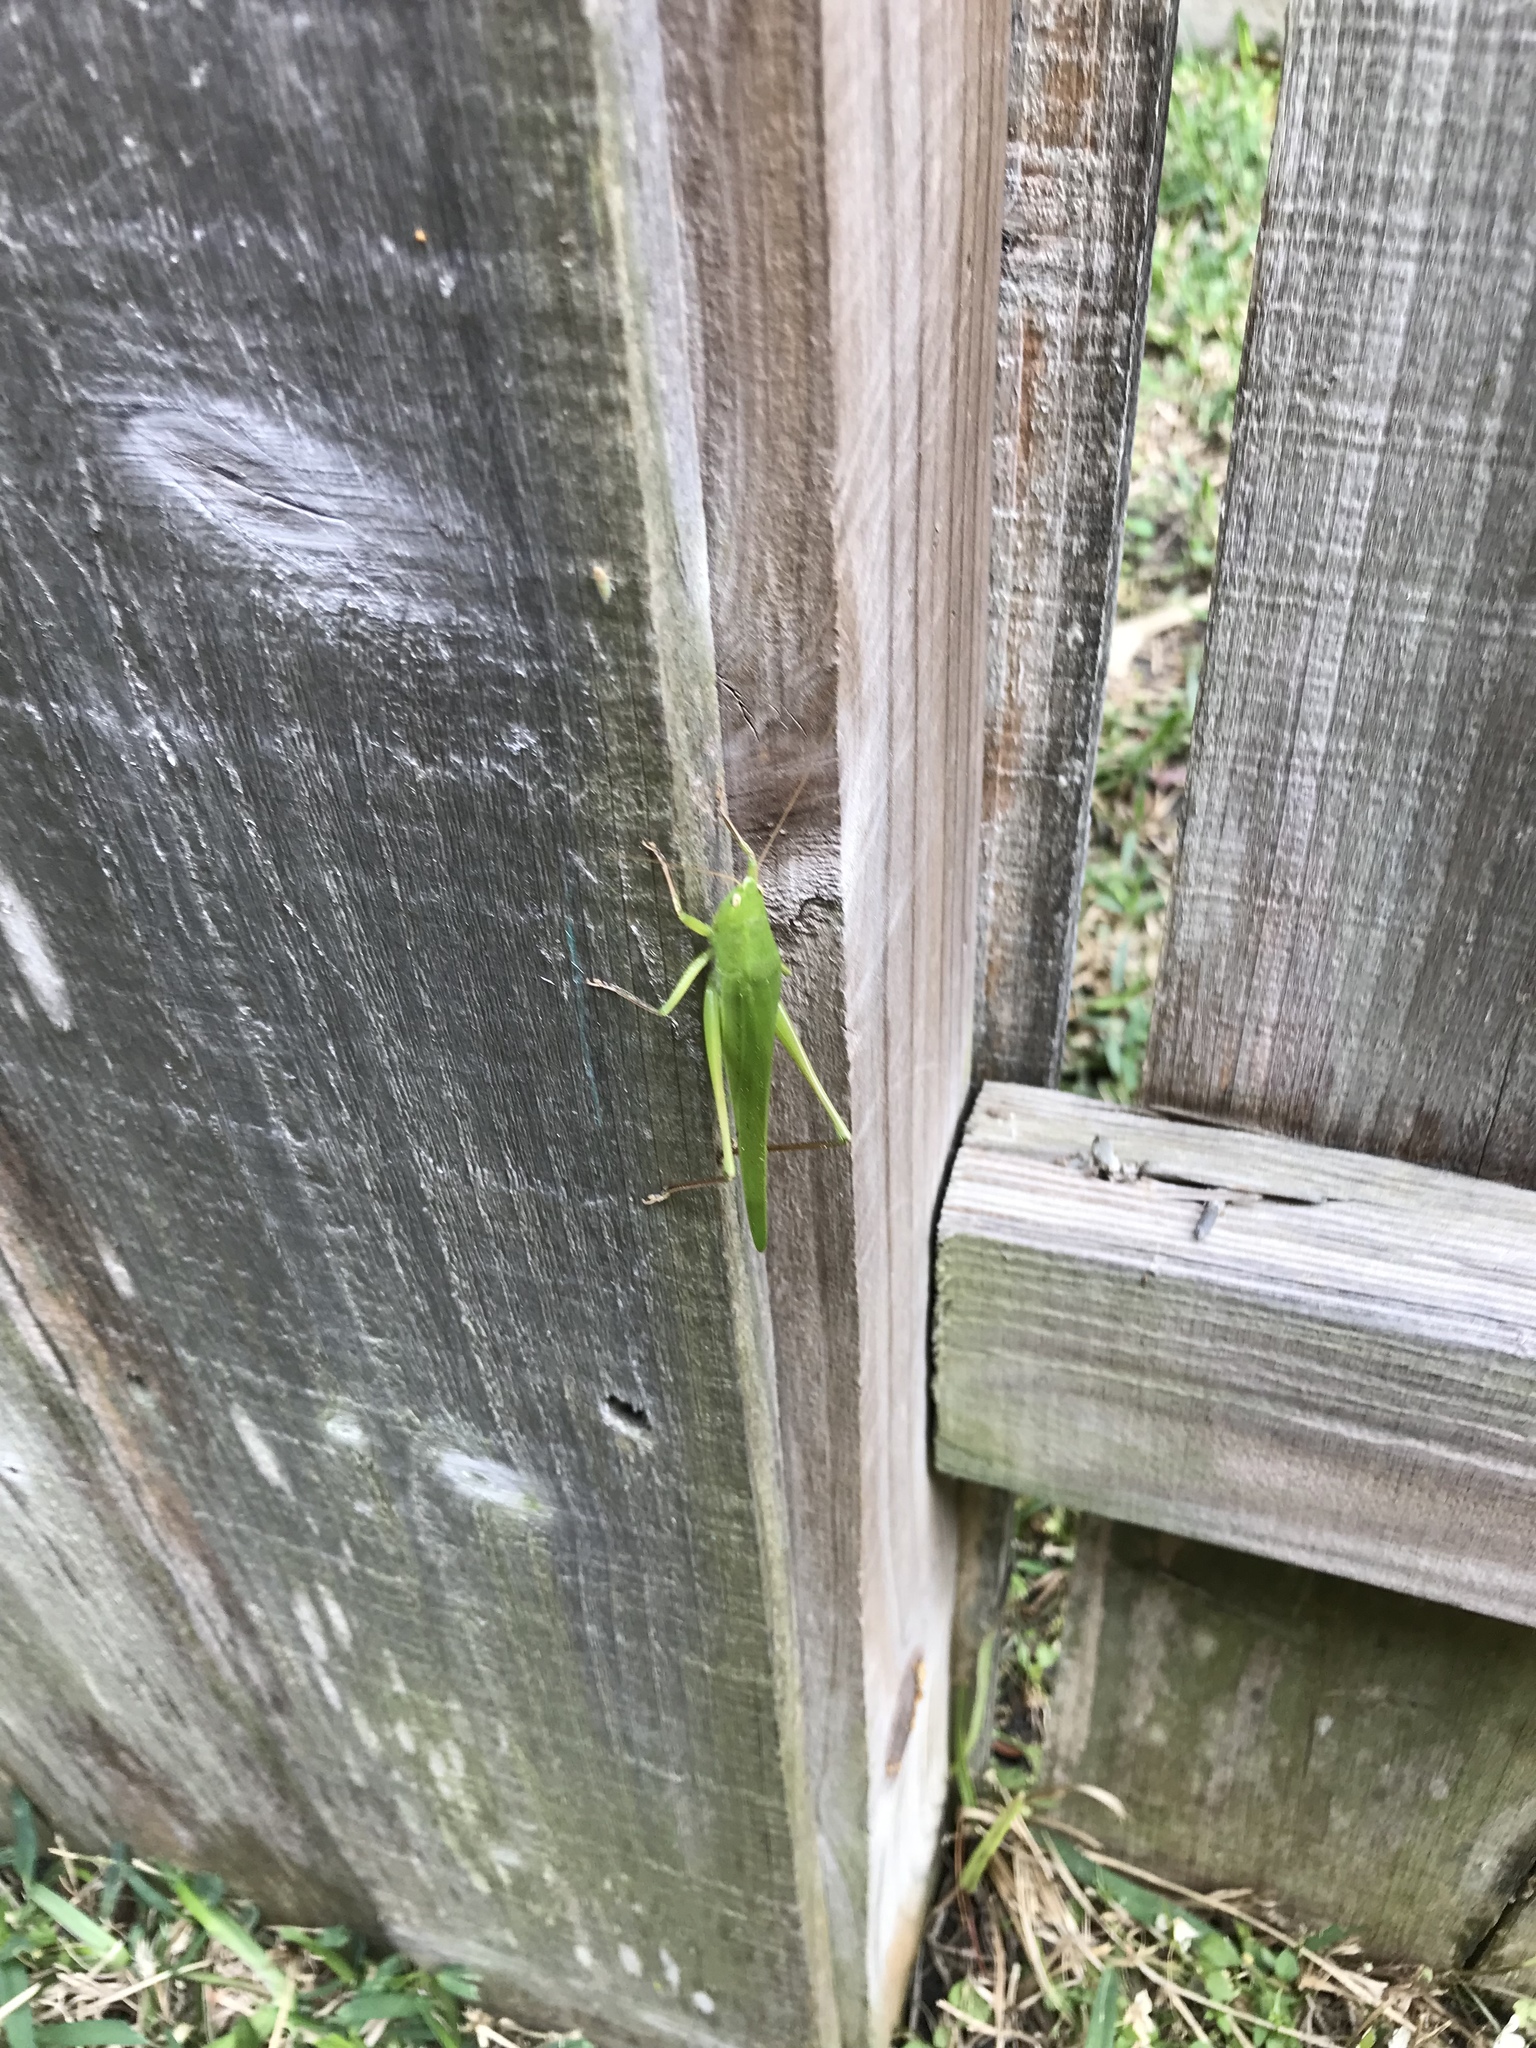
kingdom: Animalia
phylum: Arthropoda
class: Insecta
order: Orthoptera
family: Tettigoniidae
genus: Neoconocephalus
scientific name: Neoconocephalus triops
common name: Broad-tipped conehead
